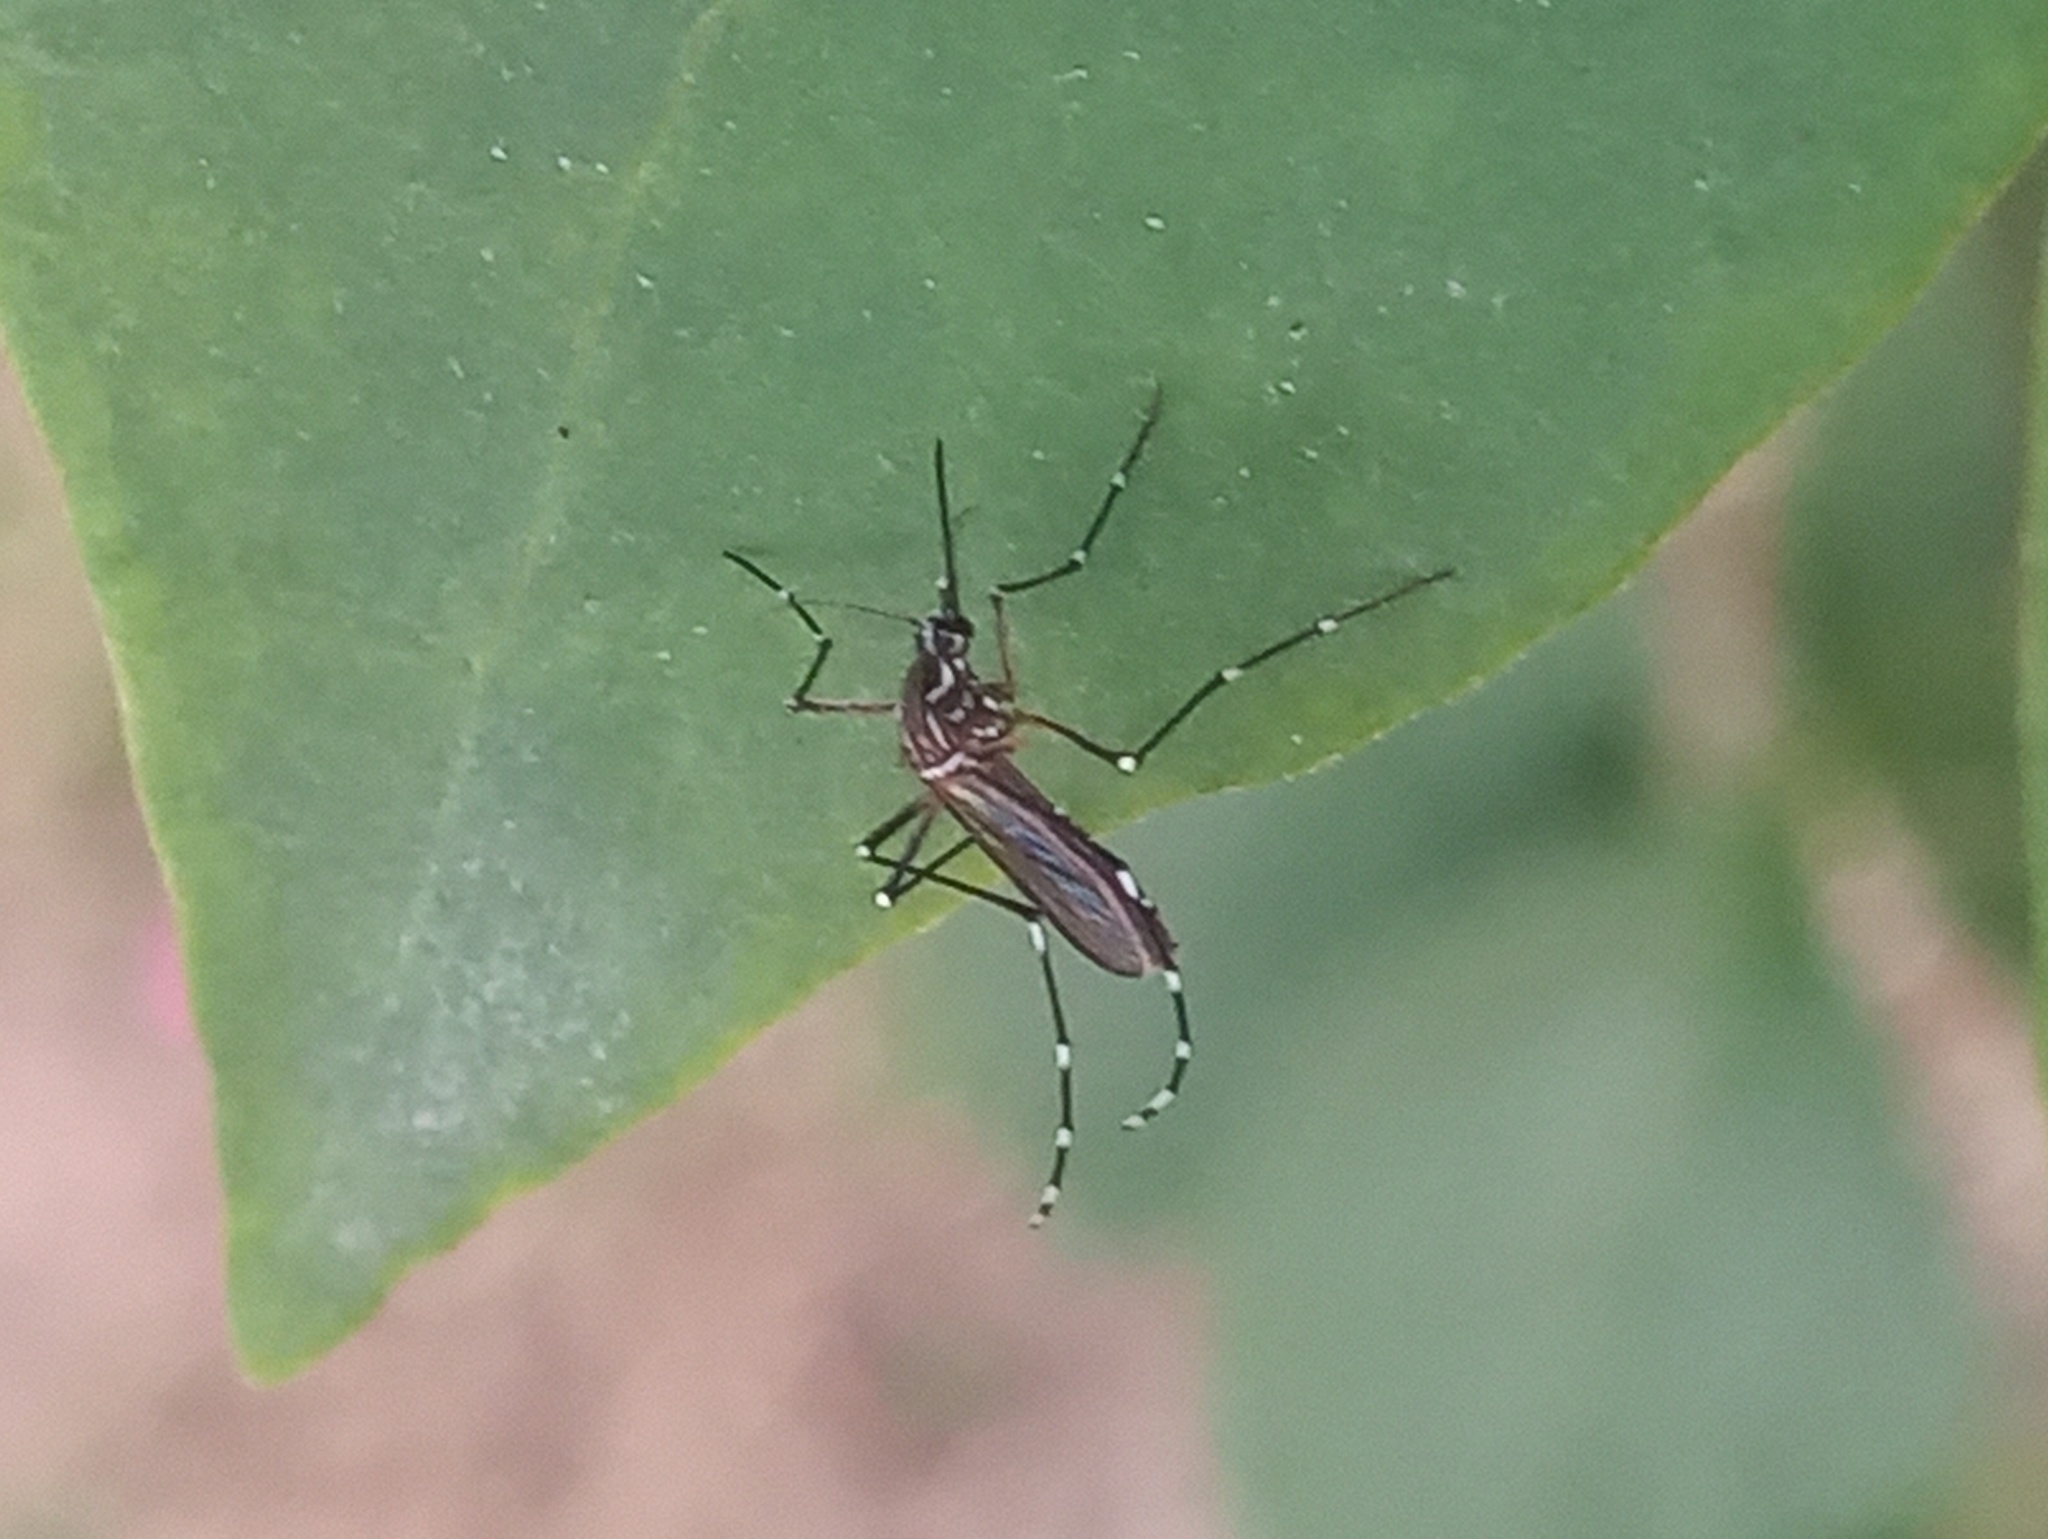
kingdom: Animalia
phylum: Arthropoda
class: Insecta
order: Diptera
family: Culicidae
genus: Aedes
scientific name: Aedes aegypti
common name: Yellow fever mosquito
